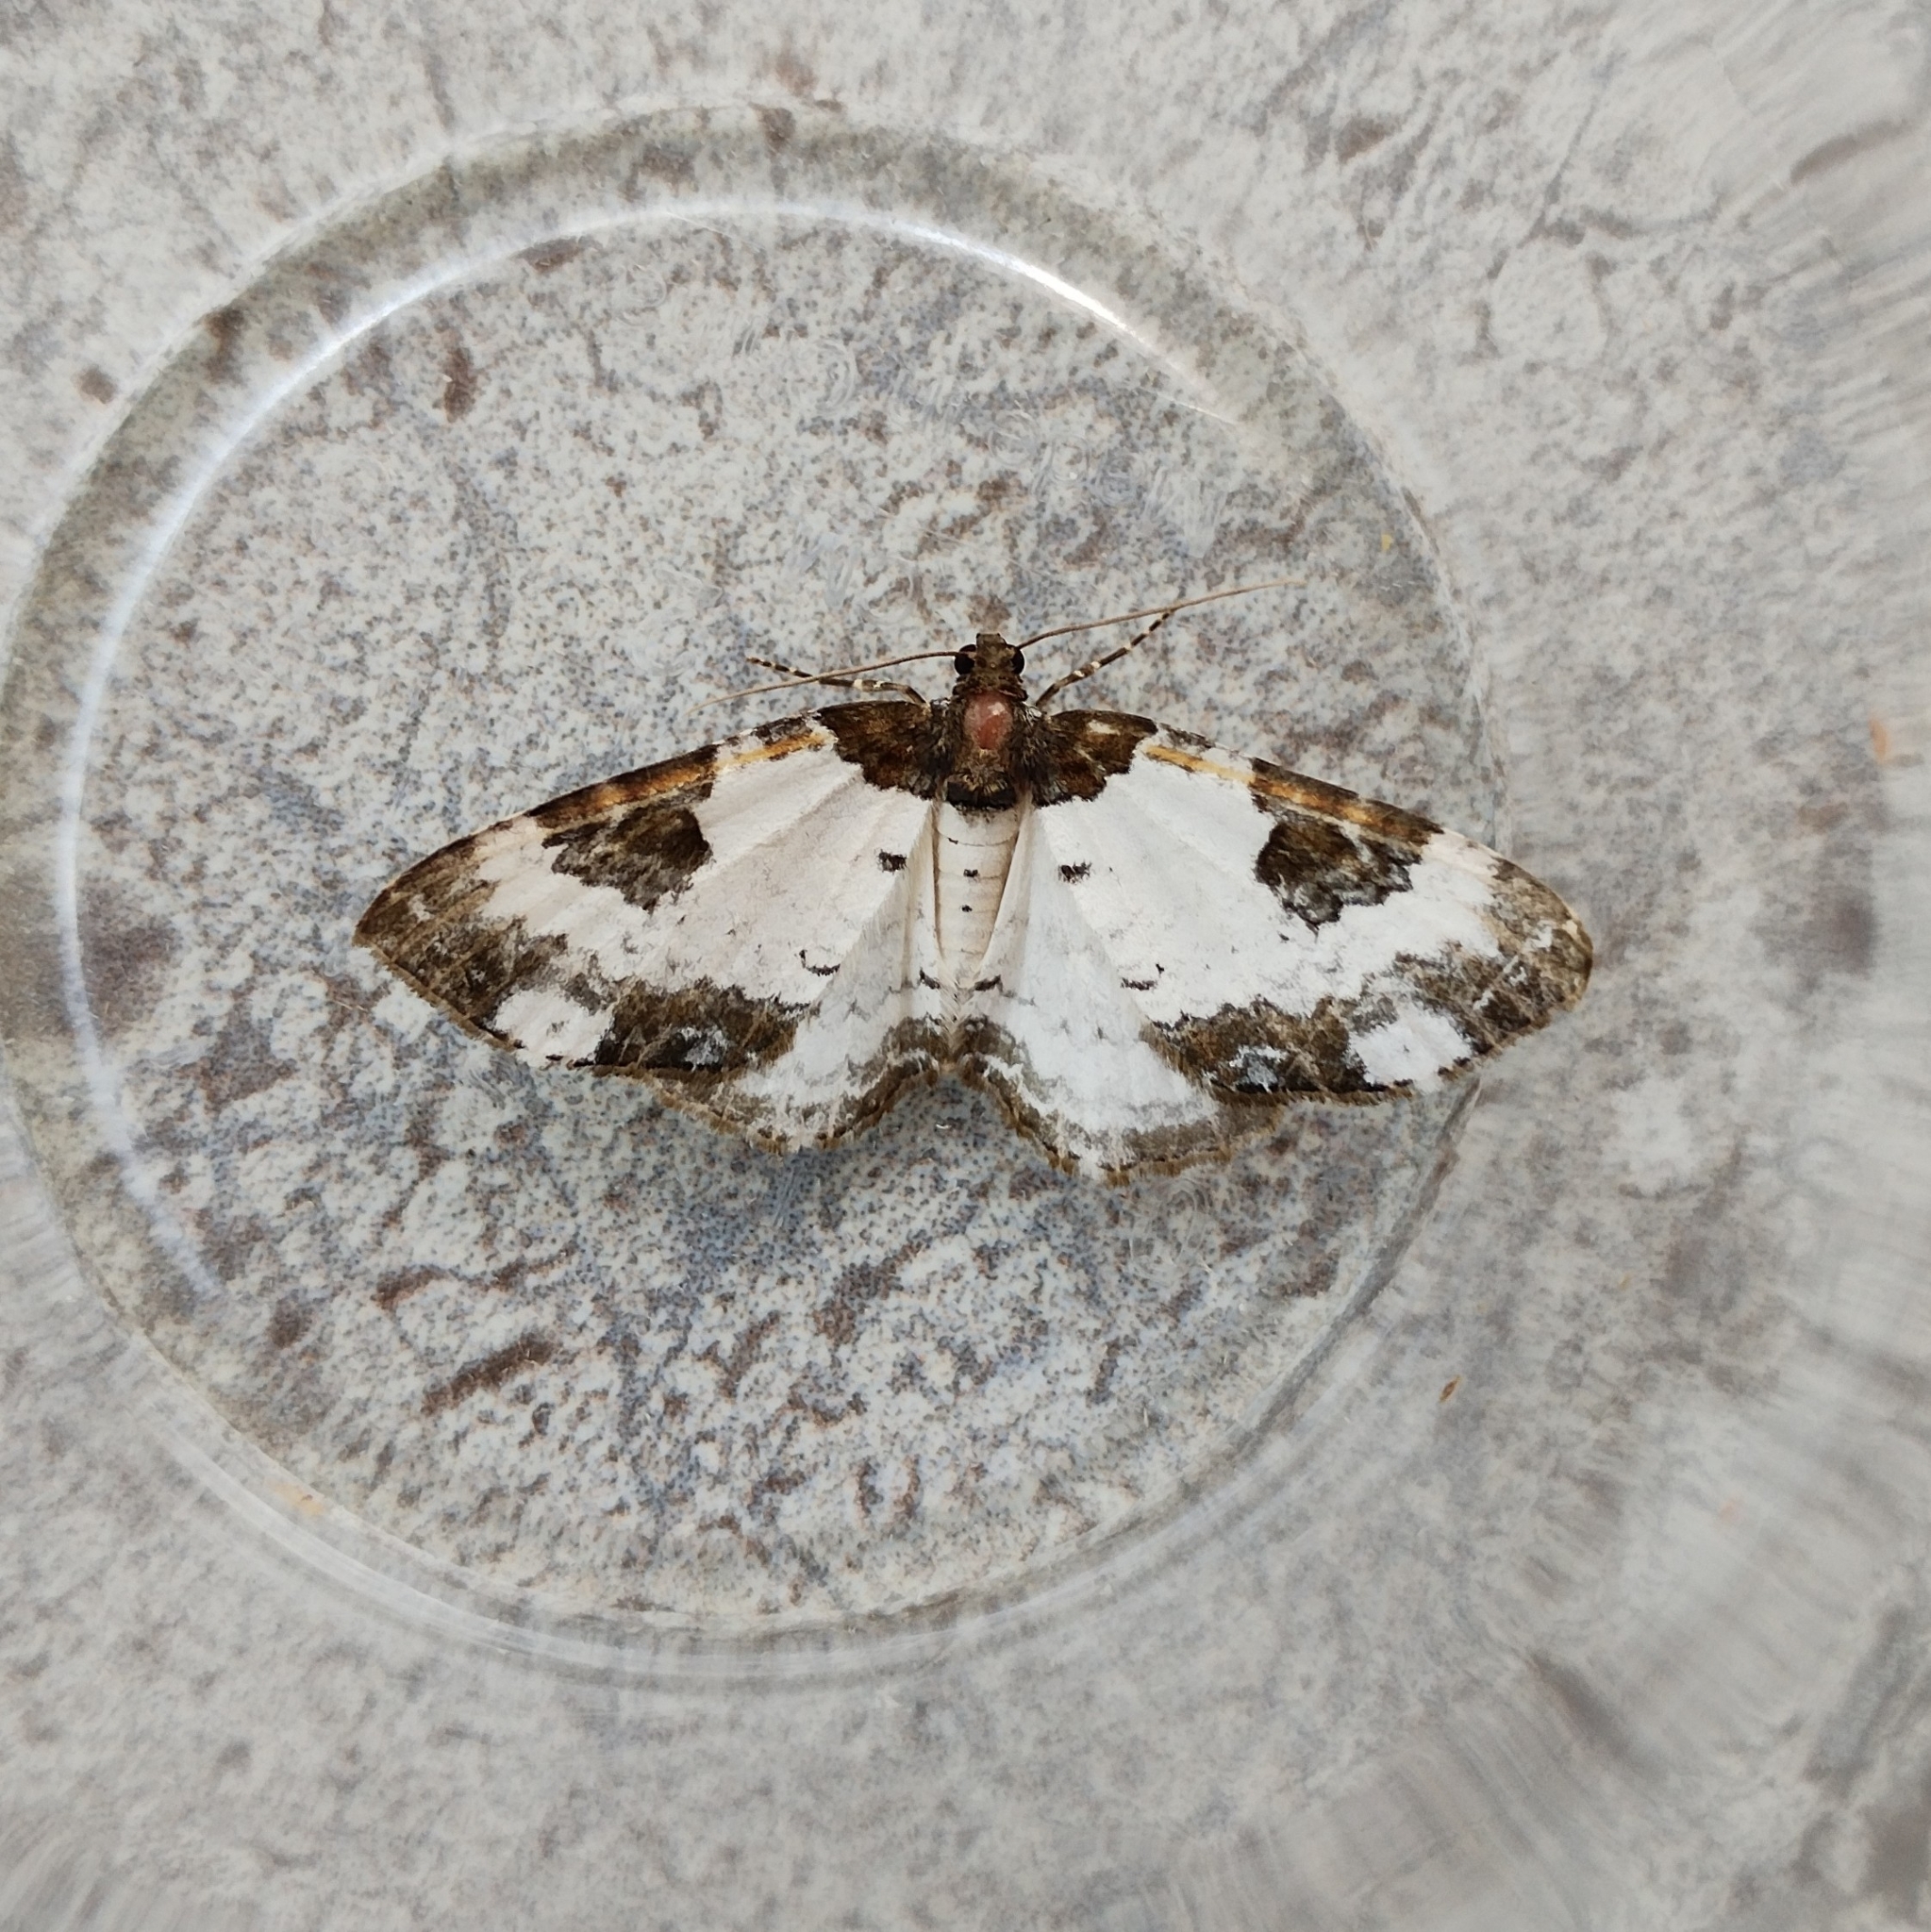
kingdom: Animalia
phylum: Arthropoda
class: Insecta
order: Lepidoptera
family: Geometridae
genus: Melanthia
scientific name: Melanthia procellata
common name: Pretty chalk carpet
